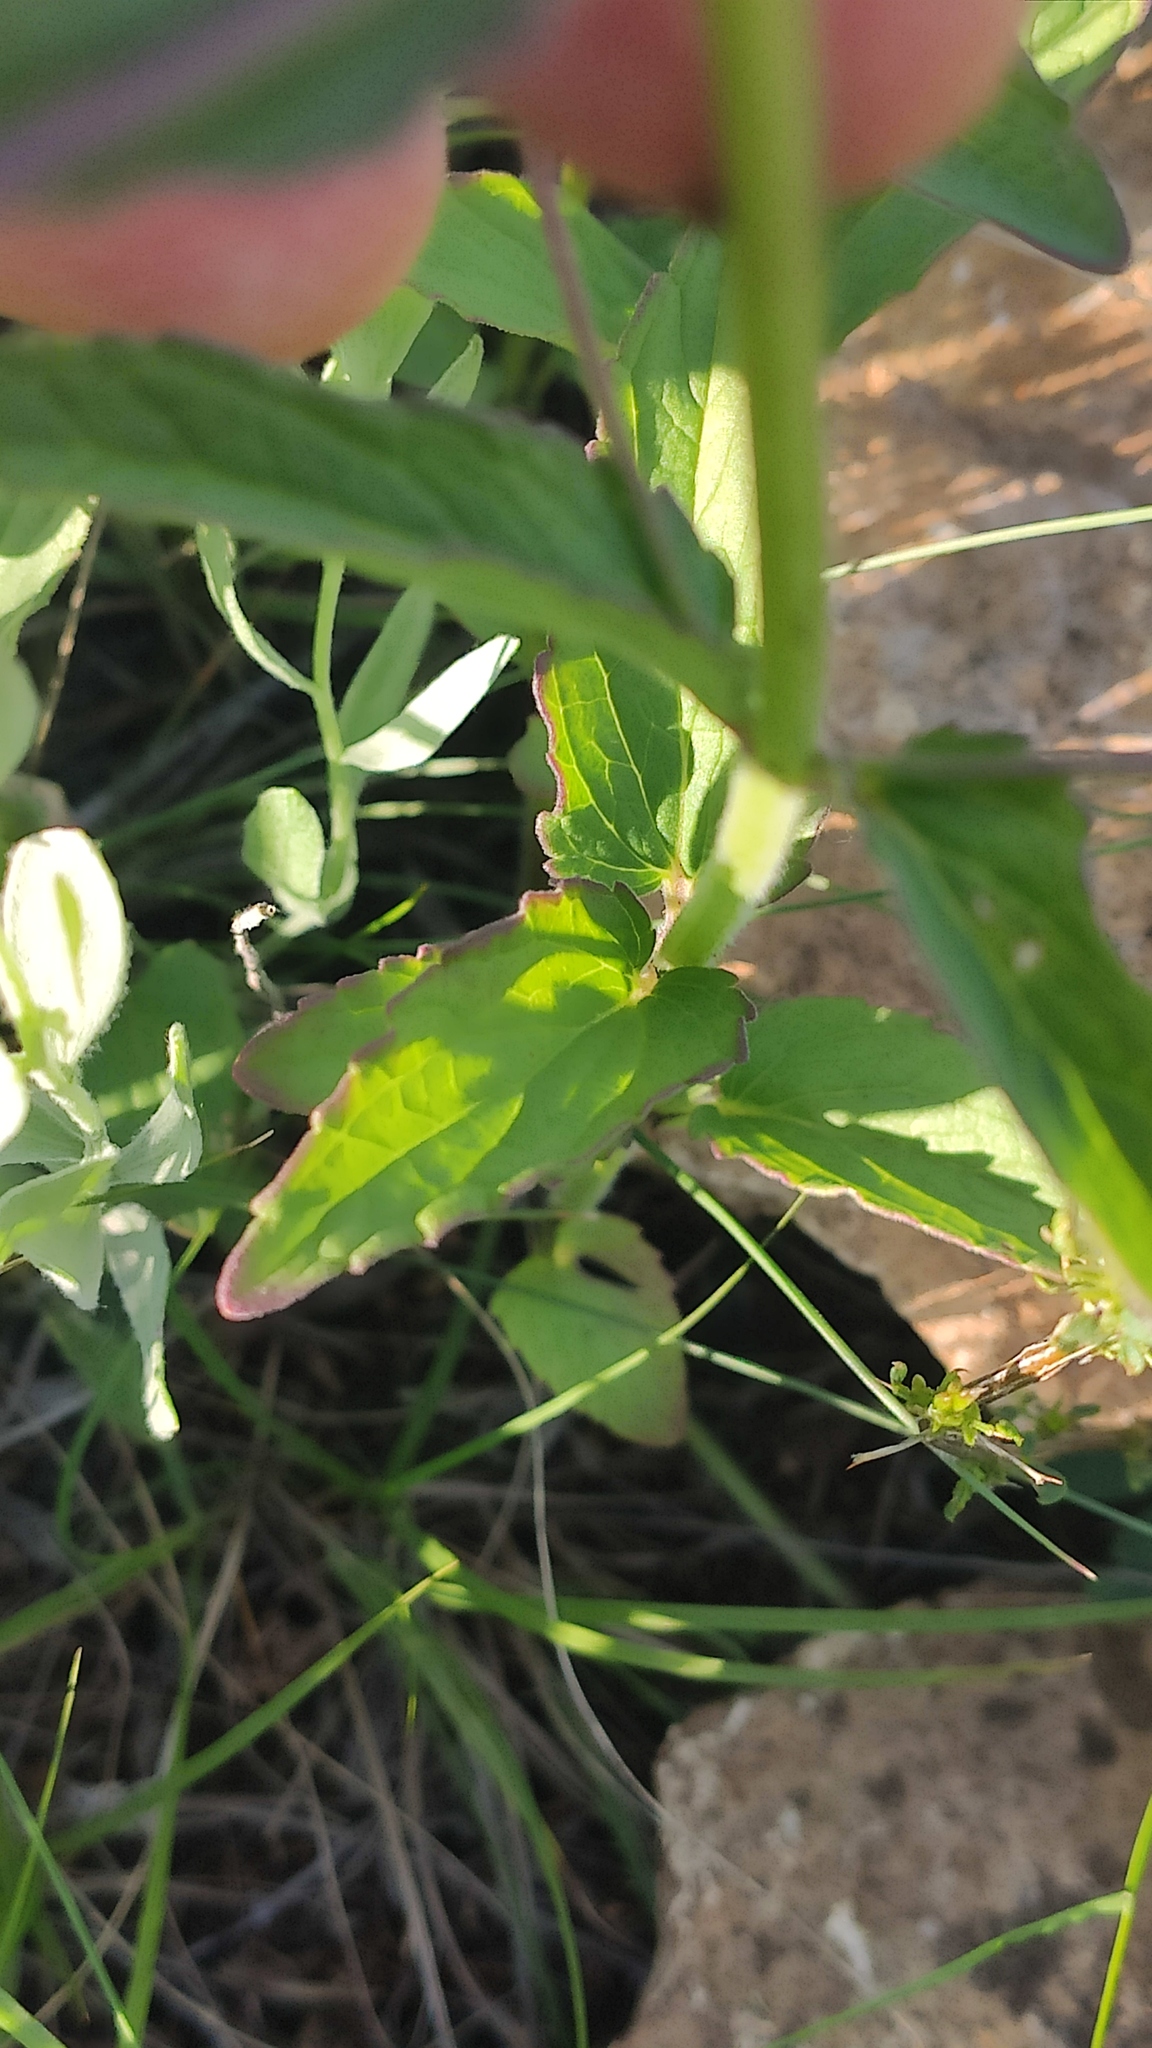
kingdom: Plantae
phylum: Tracheophyta
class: Magnoliopsida
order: Lamiales
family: Lamiaceae
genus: Nepeta
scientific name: Nepeta ucranica
